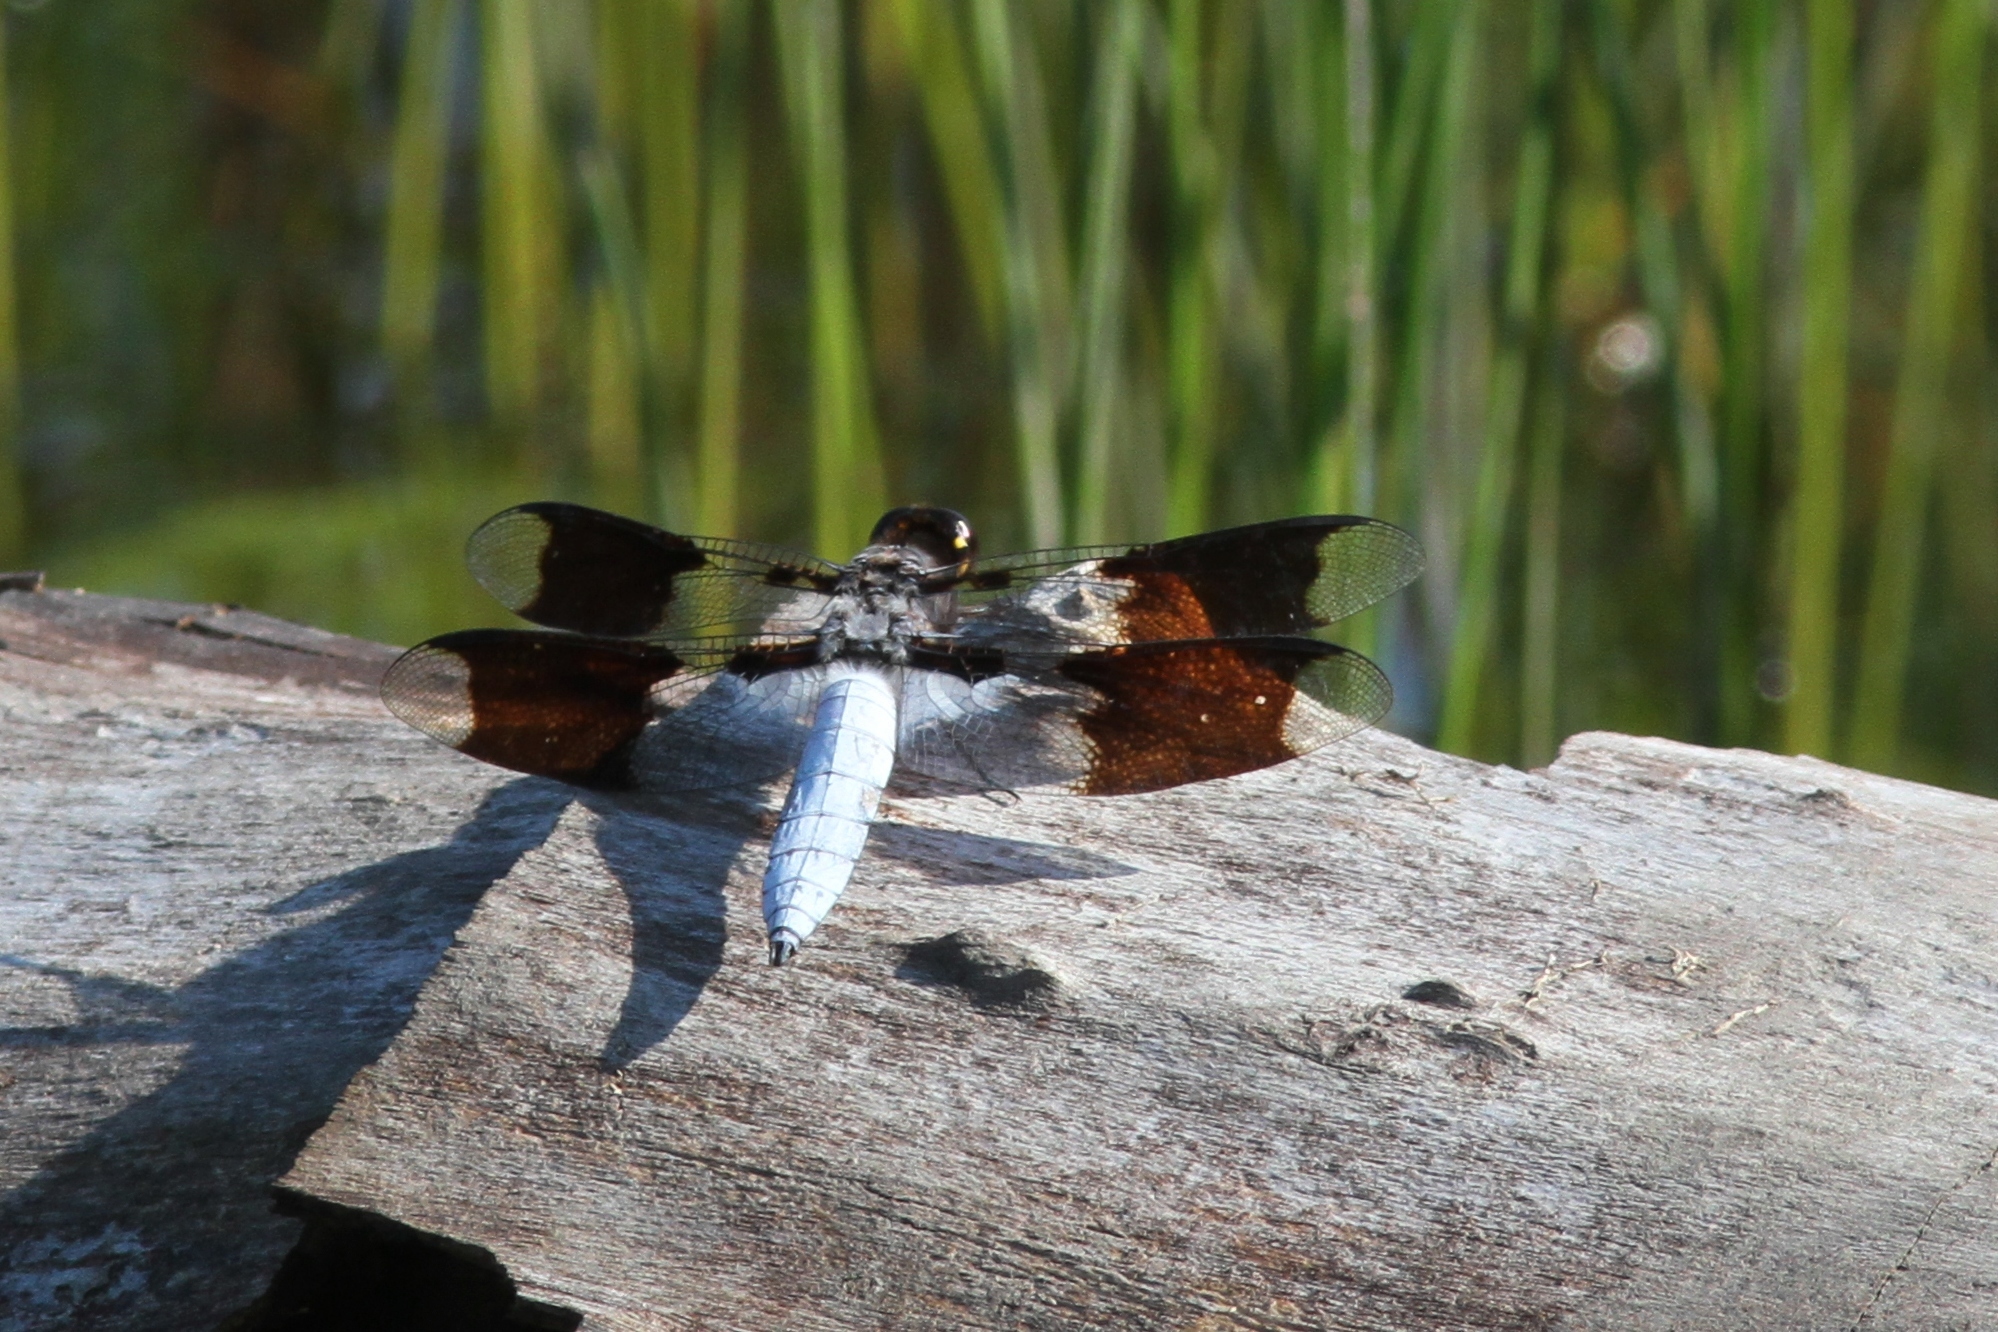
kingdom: Animalia
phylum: Arthropoda
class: Insecta
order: Odonata
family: Libellulidae
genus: Plathemis
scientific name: Plathemis lydia
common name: Common whitetail
